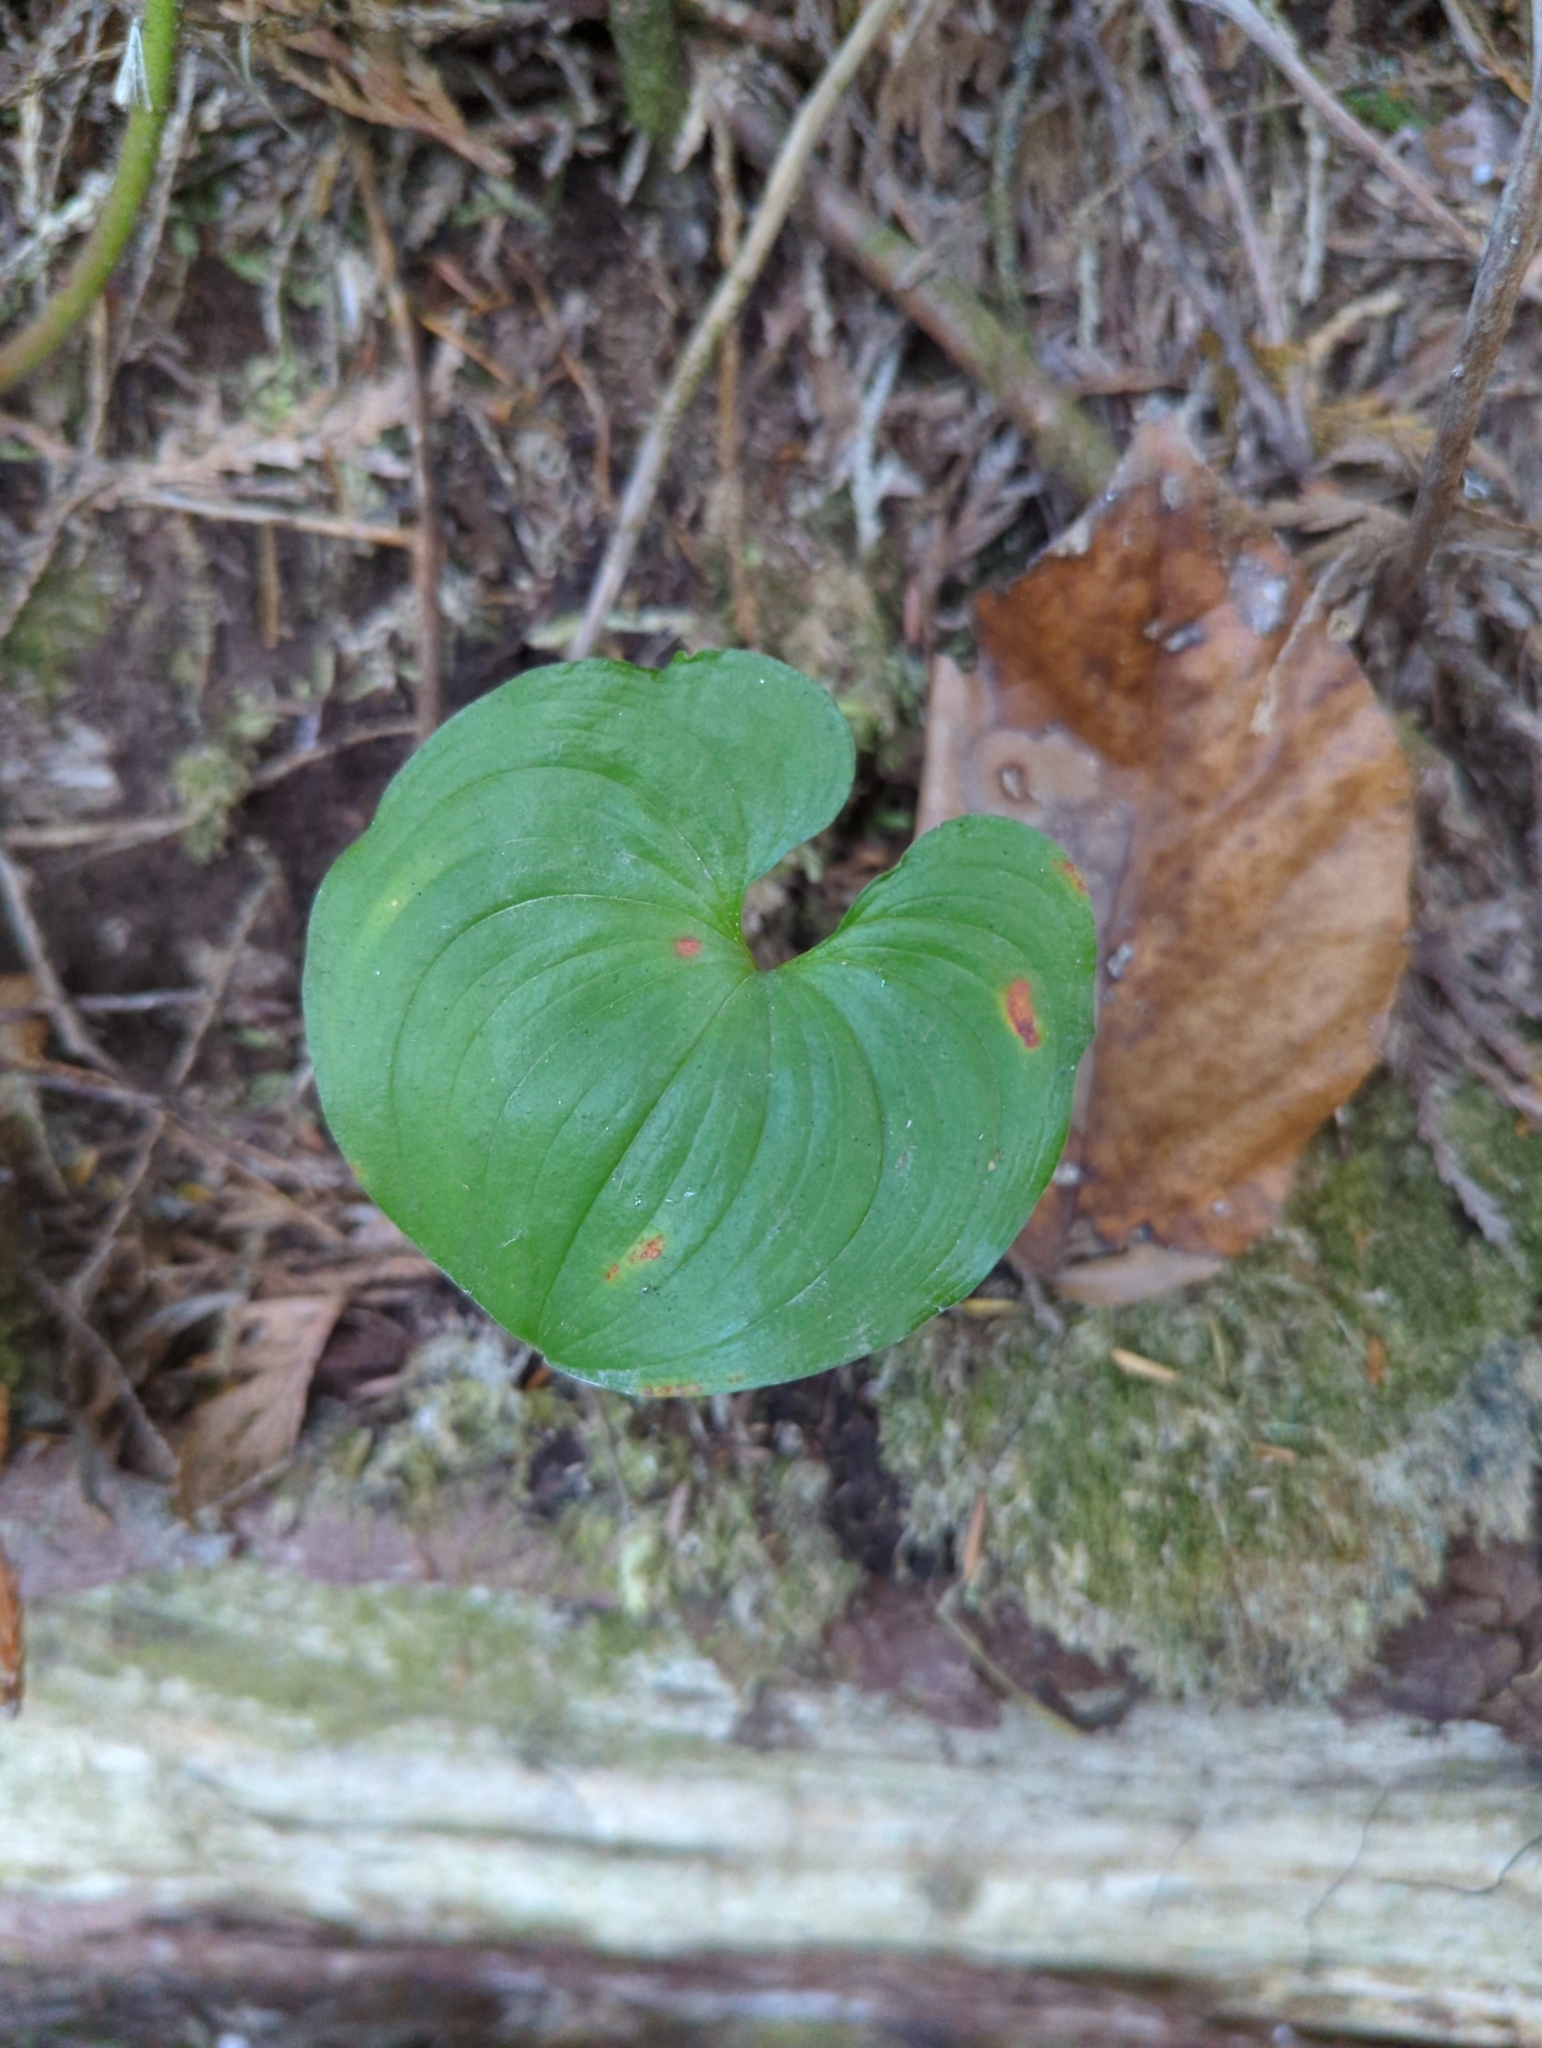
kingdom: Plantae
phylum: Tracheophyta
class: Liliopsida
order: Asparagales
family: Asparagaceae
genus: Maianthemum
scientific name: Maianthemum dilatatum
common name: False lily-of-the-valley
